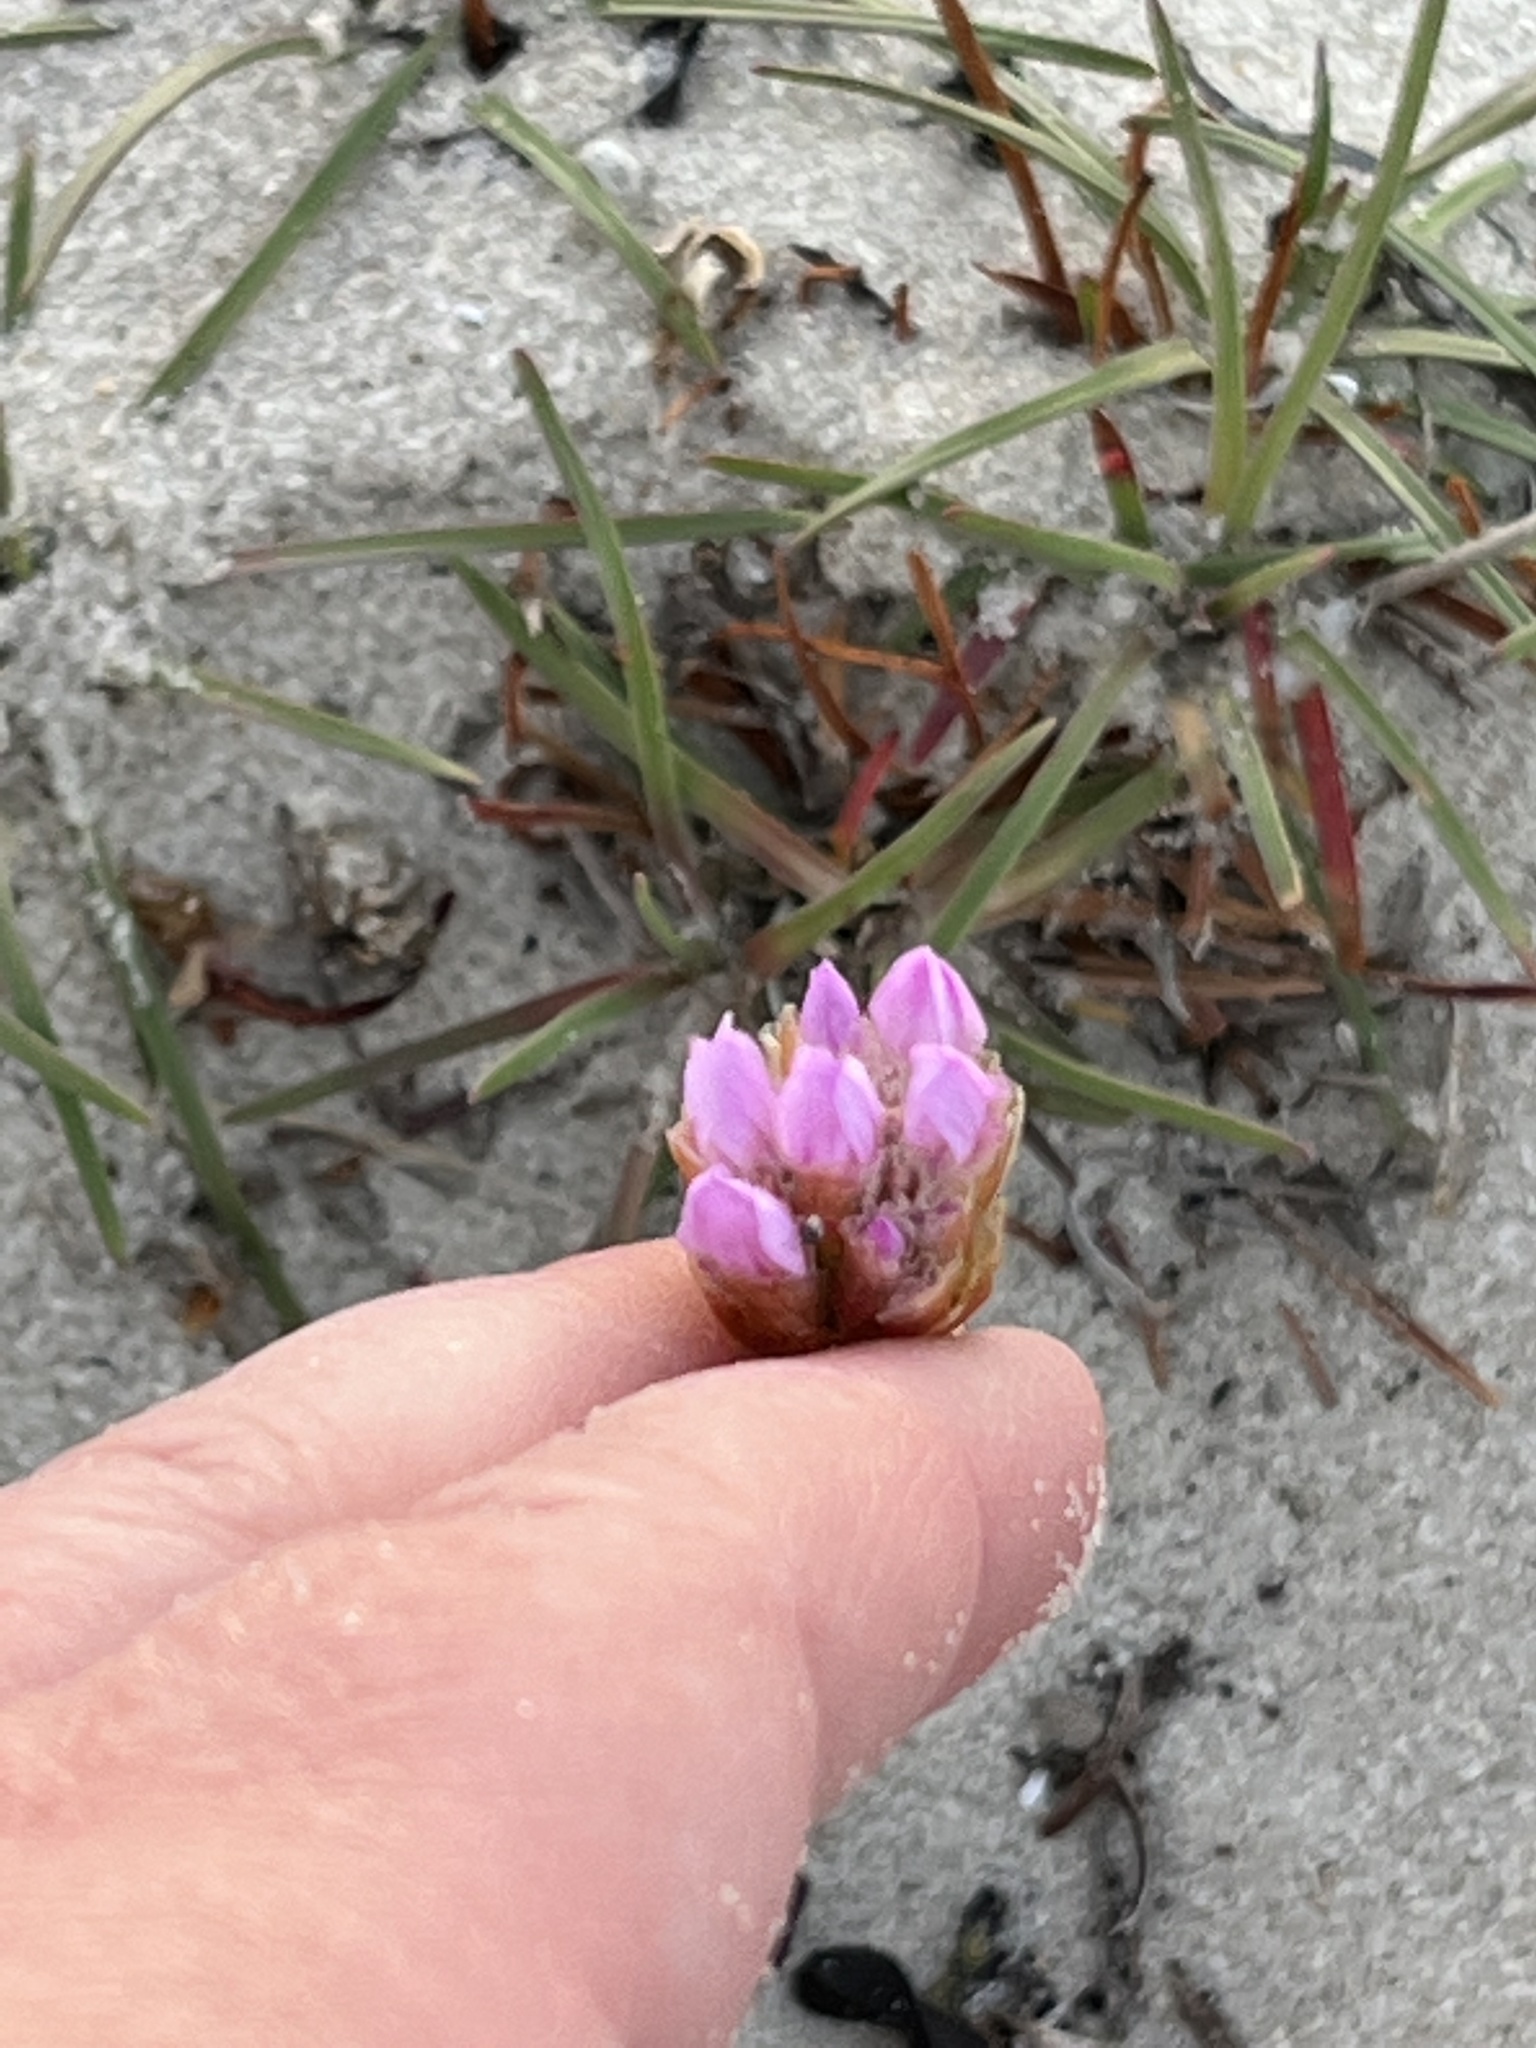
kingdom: Plantae
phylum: Tracheophyta
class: Magnoliopsida
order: Caryophyllales
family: Plumbaginaceae
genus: Armeria
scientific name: Armeria maritima
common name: Thrift
